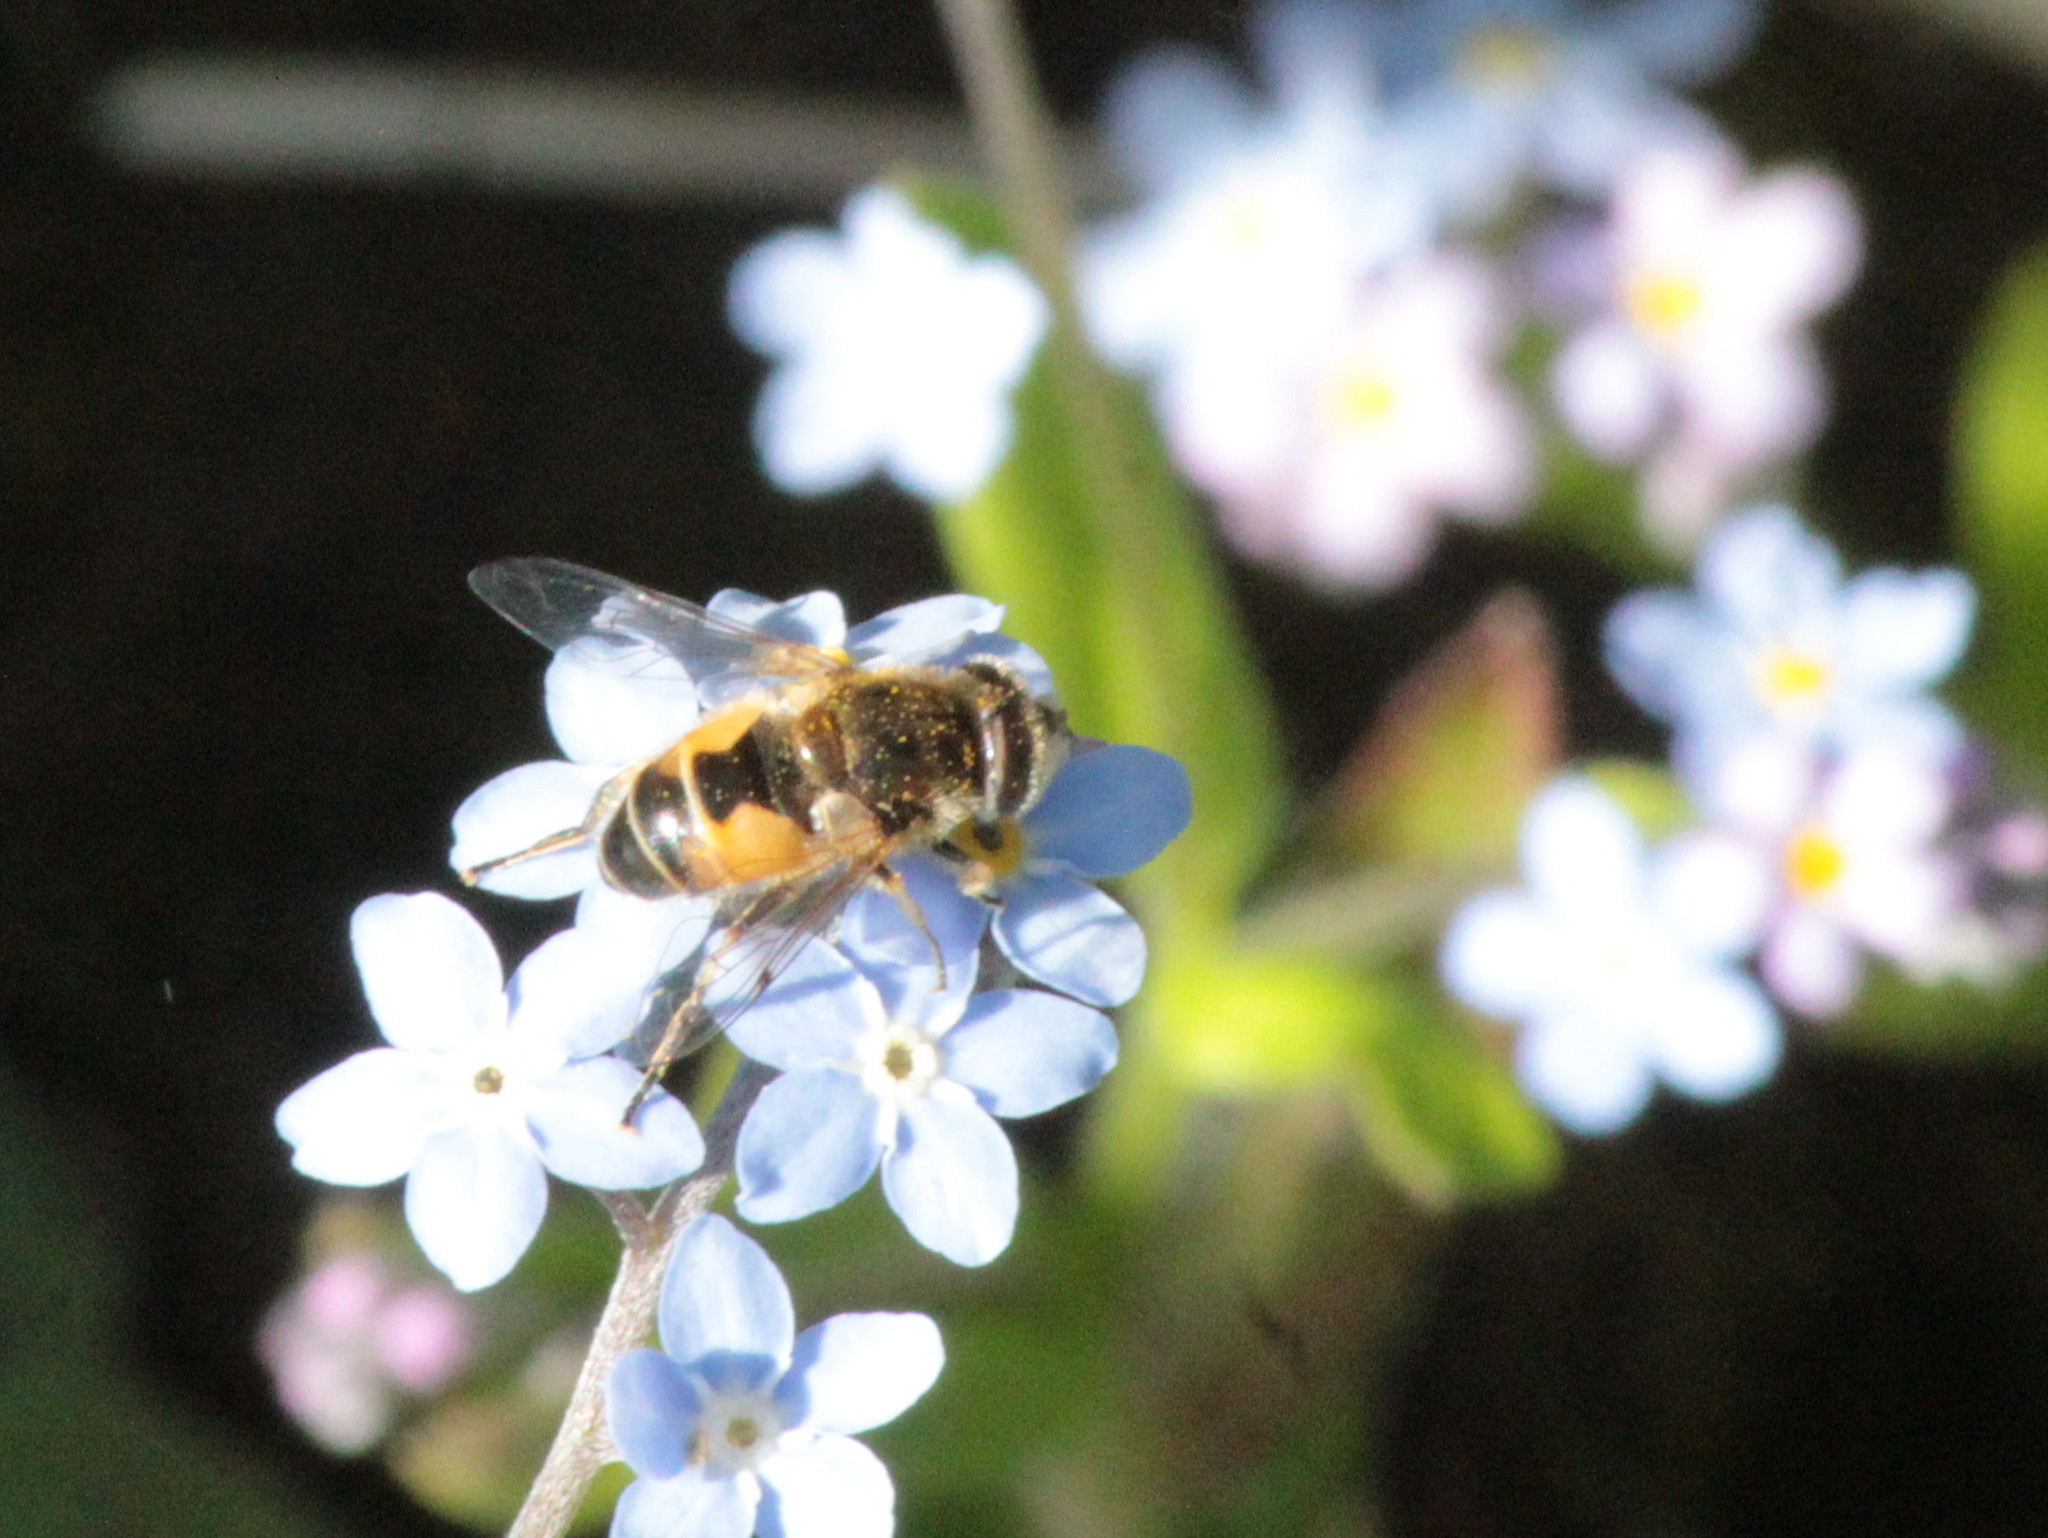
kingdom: Animalia
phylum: Arthropoda
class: Insecta
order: Diptera
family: Syrphidae
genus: Eristalis
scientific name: Eristalis arbustorum
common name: Hover fly
